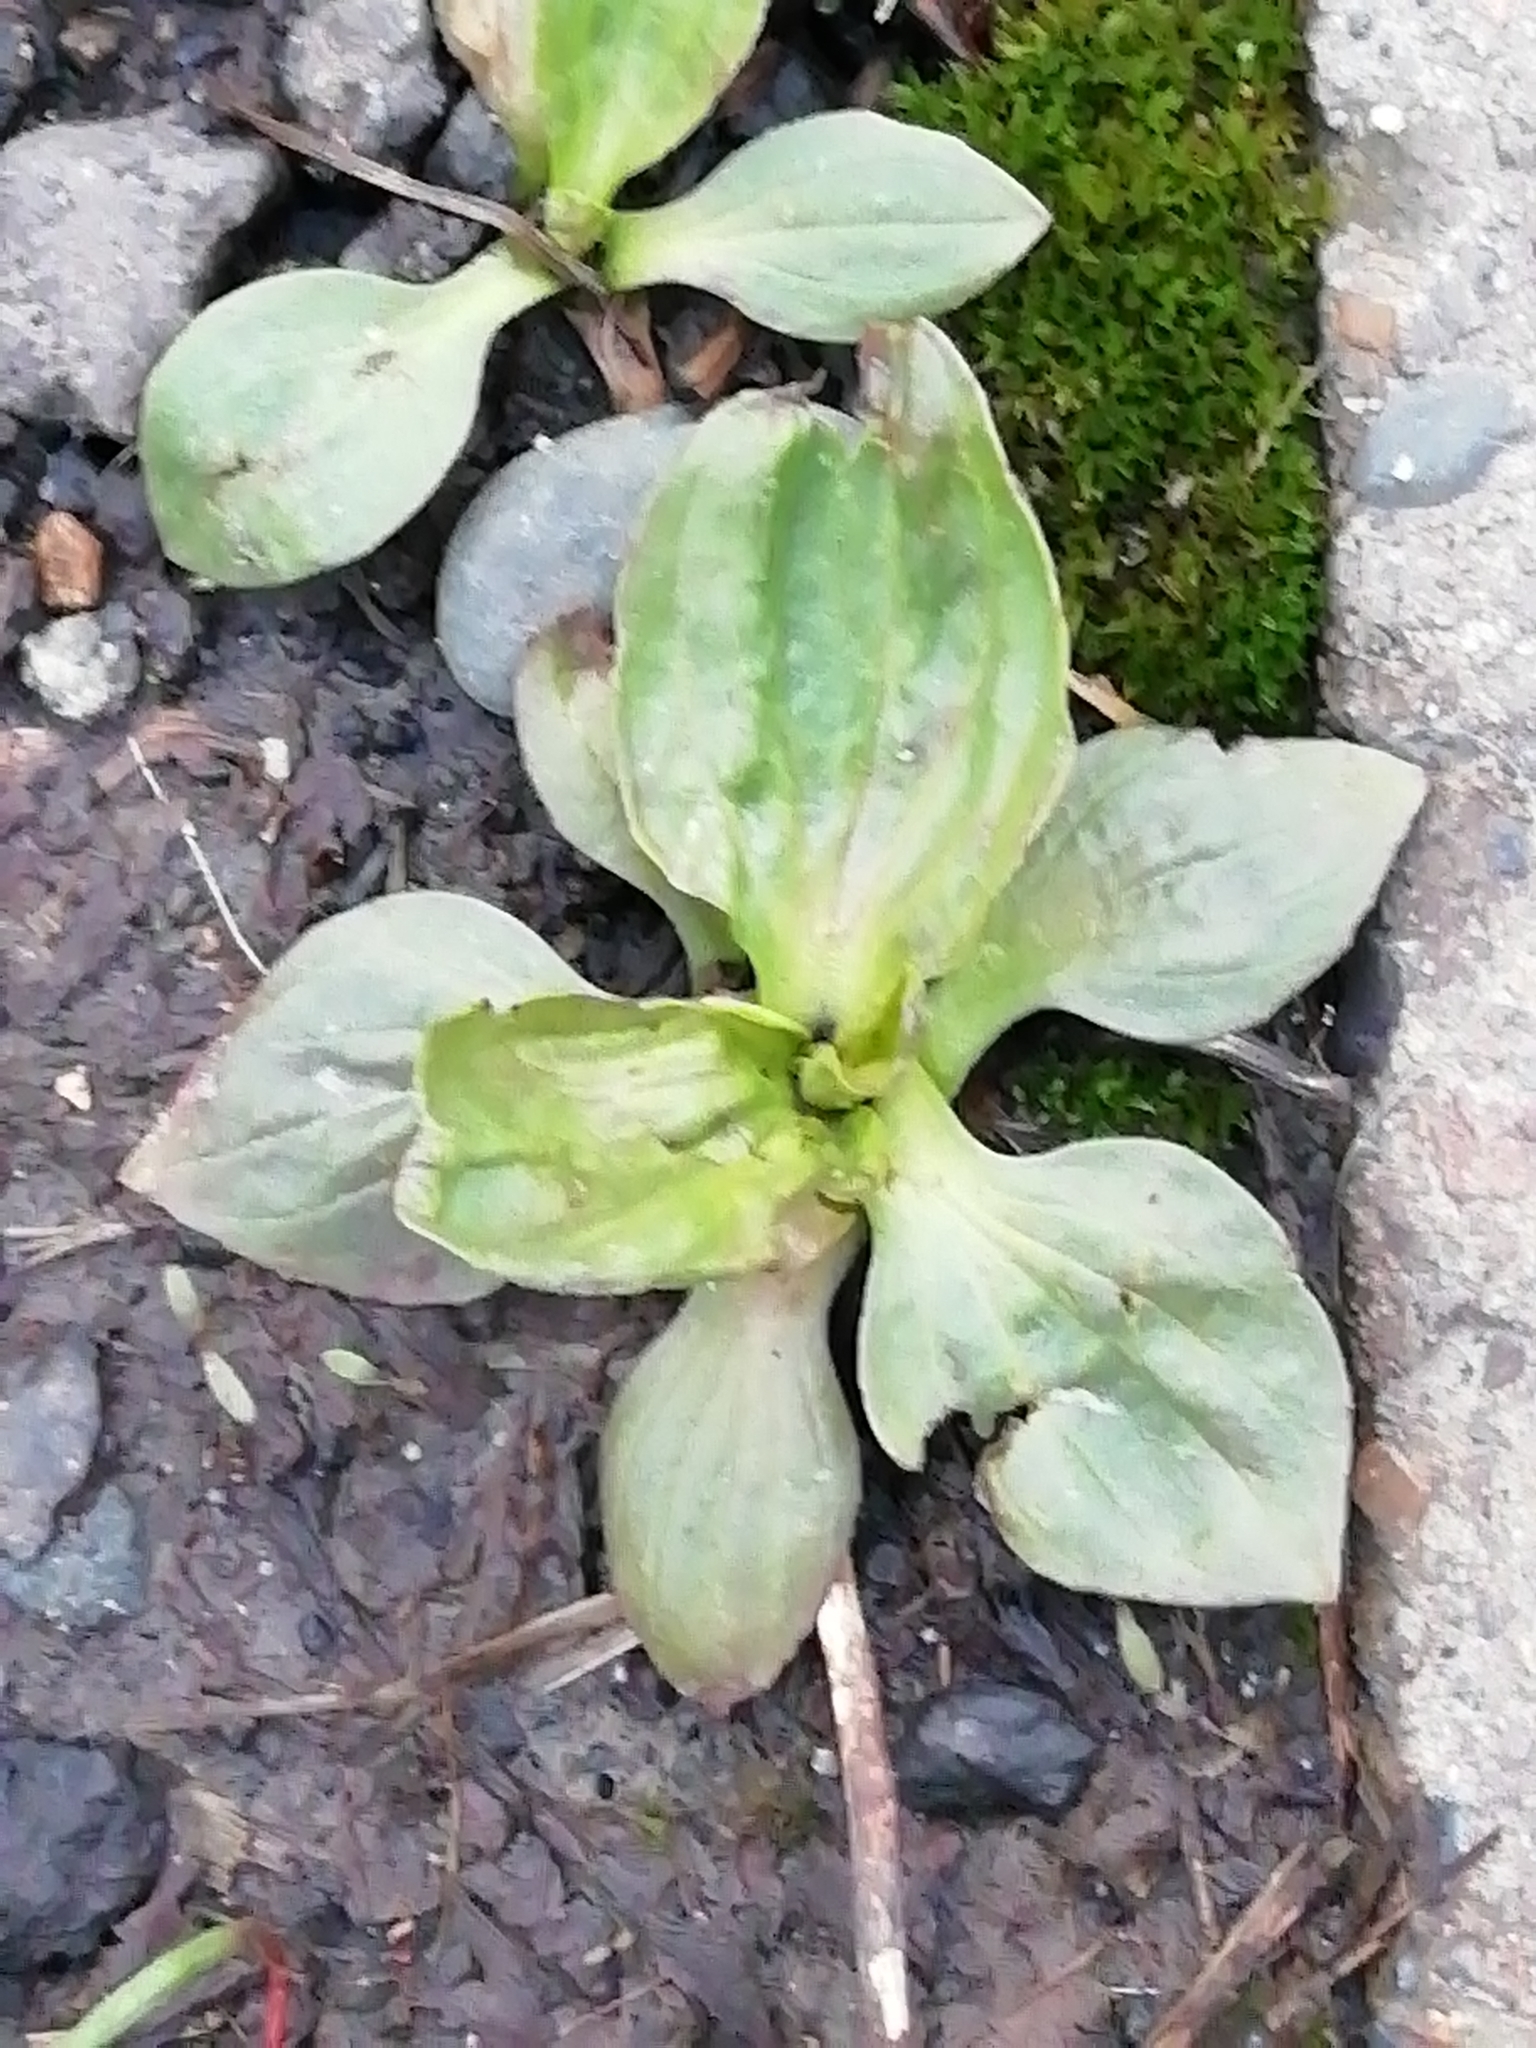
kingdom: Plantae
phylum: Tracheophyta
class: Magnoliopsida
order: Lamiales
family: Plantaginaceae
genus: Plantago
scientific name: Plantago major
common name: Common plantain
